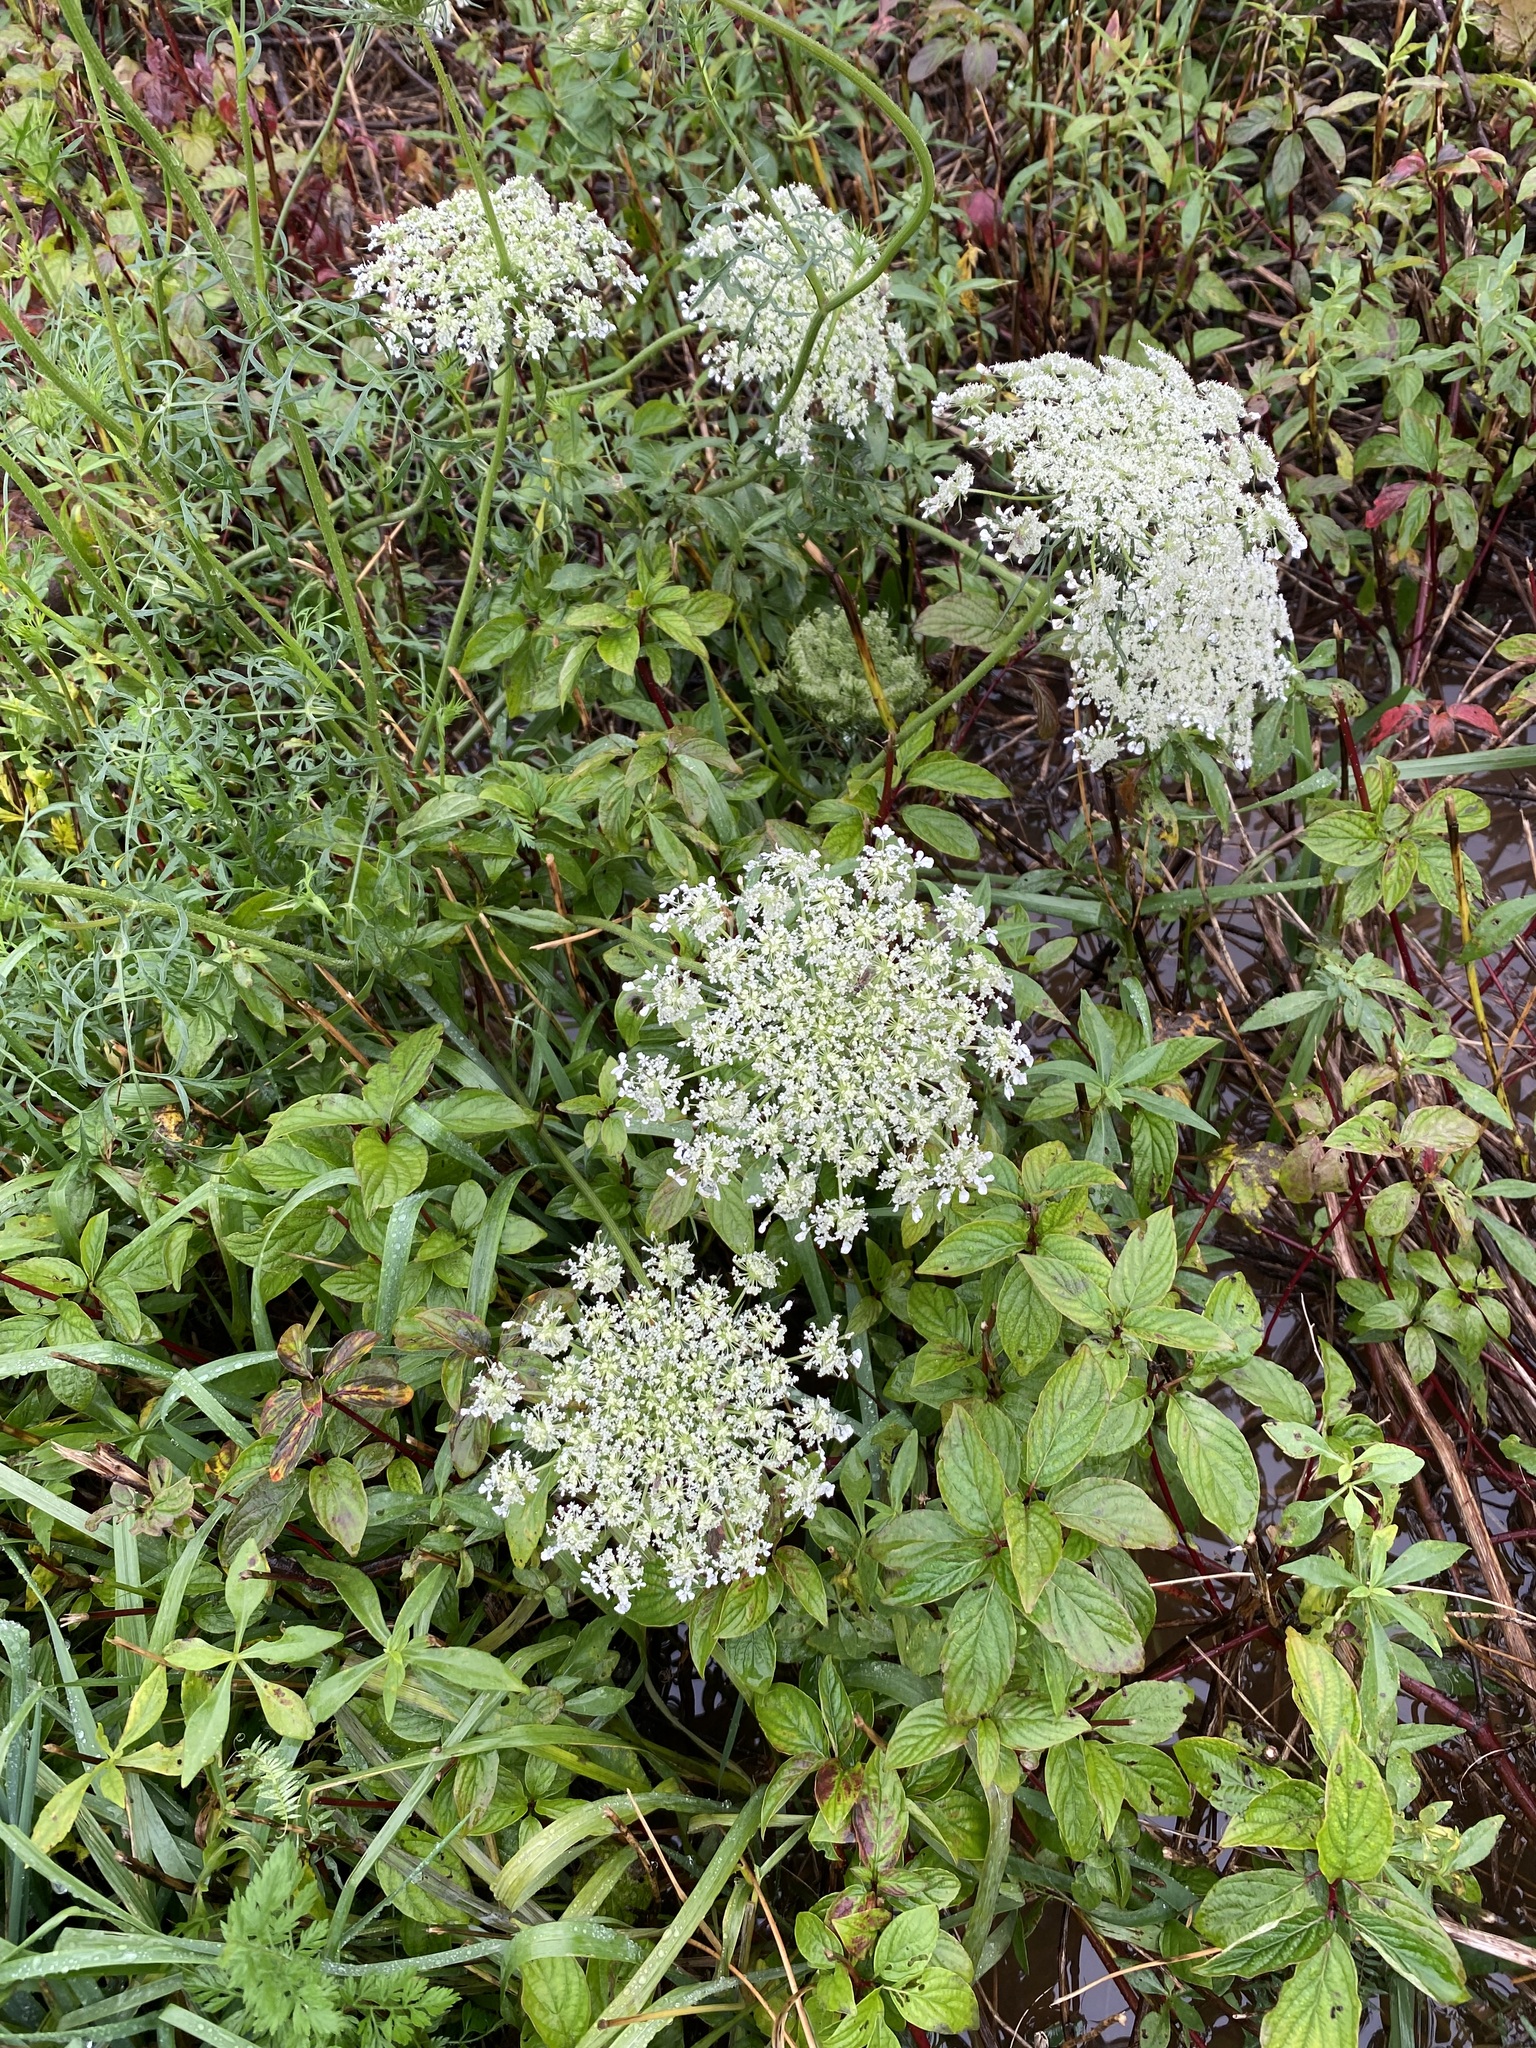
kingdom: Plantae
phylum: Tracheophyta
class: Magnoliopsida
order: Apiales
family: Apiaceae
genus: Daucus
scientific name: Daucus carota
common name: Wild carrot
